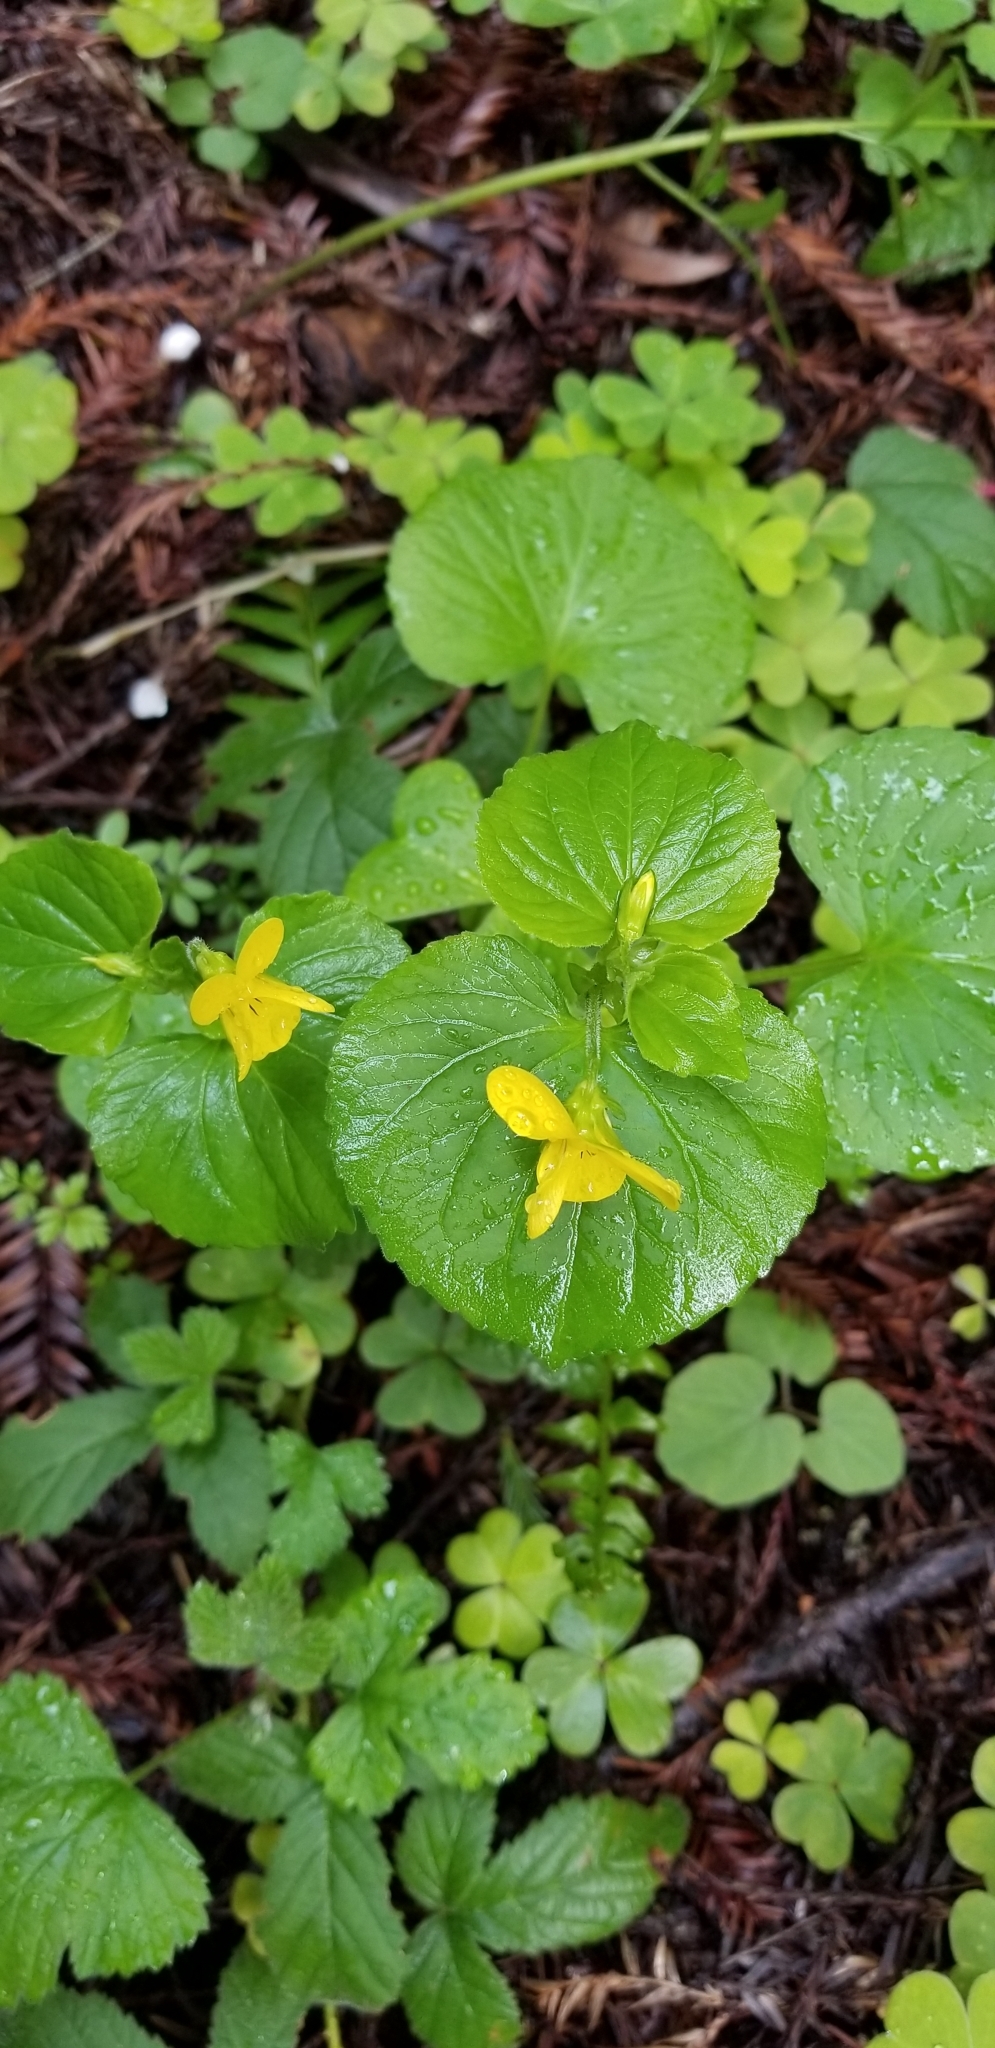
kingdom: Plantae
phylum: Tracheophyta
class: Magnoliopsida
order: Malpighiales
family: Violaceae
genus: Viola
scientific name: Viola glabella
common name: Stream violet
